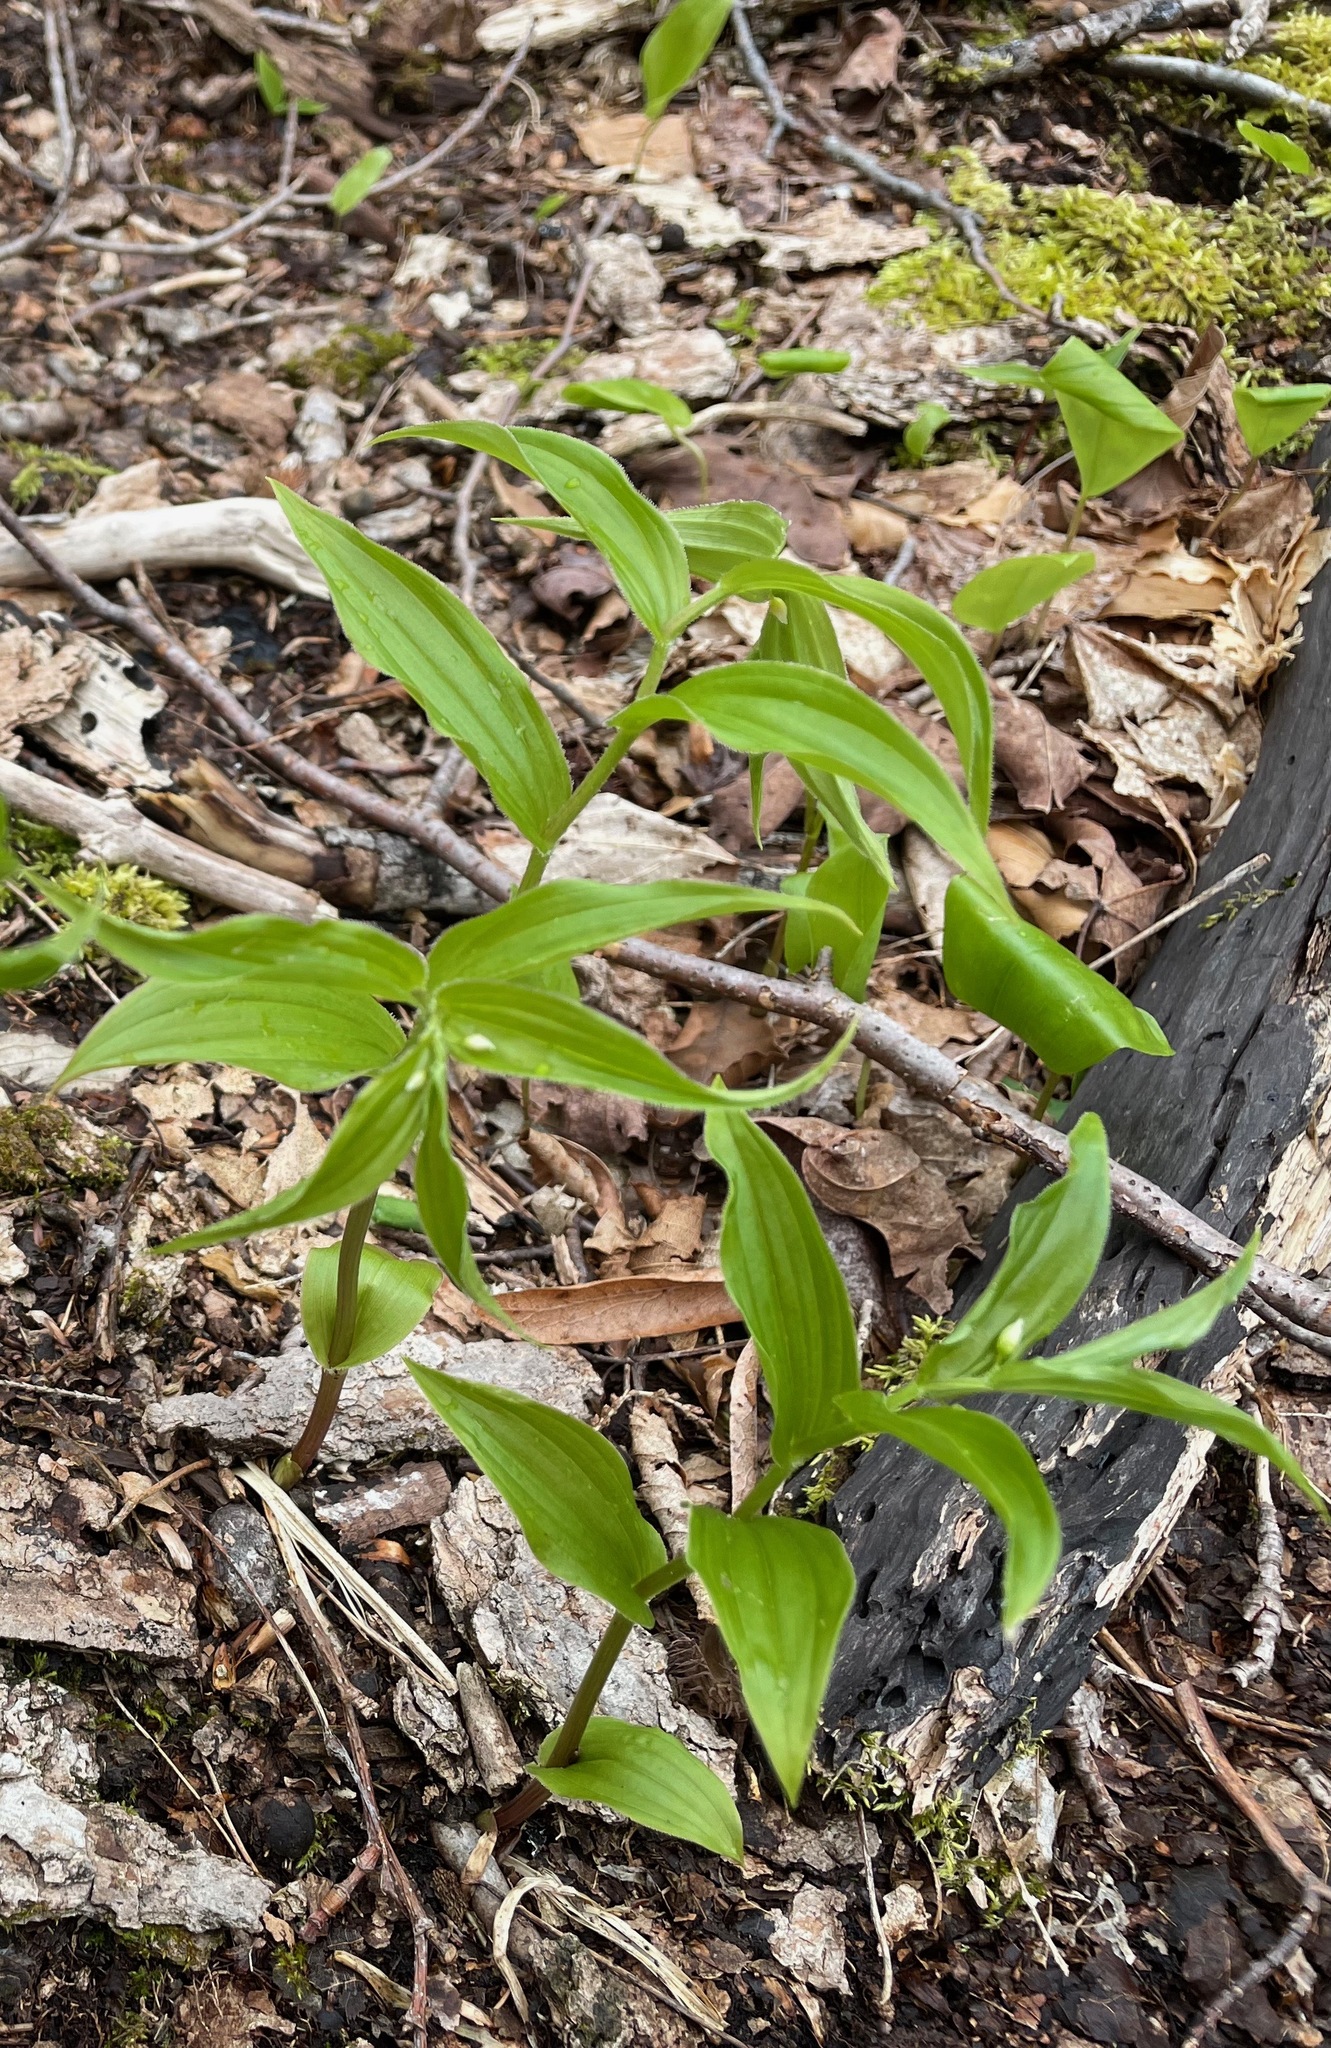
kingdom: Plantae
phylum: Tracheophyta
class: Liliopsida
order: Liliales
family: Liliaceae
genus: Streptopus
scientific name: Streptopus lanceolatus
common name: Rose mandarin
